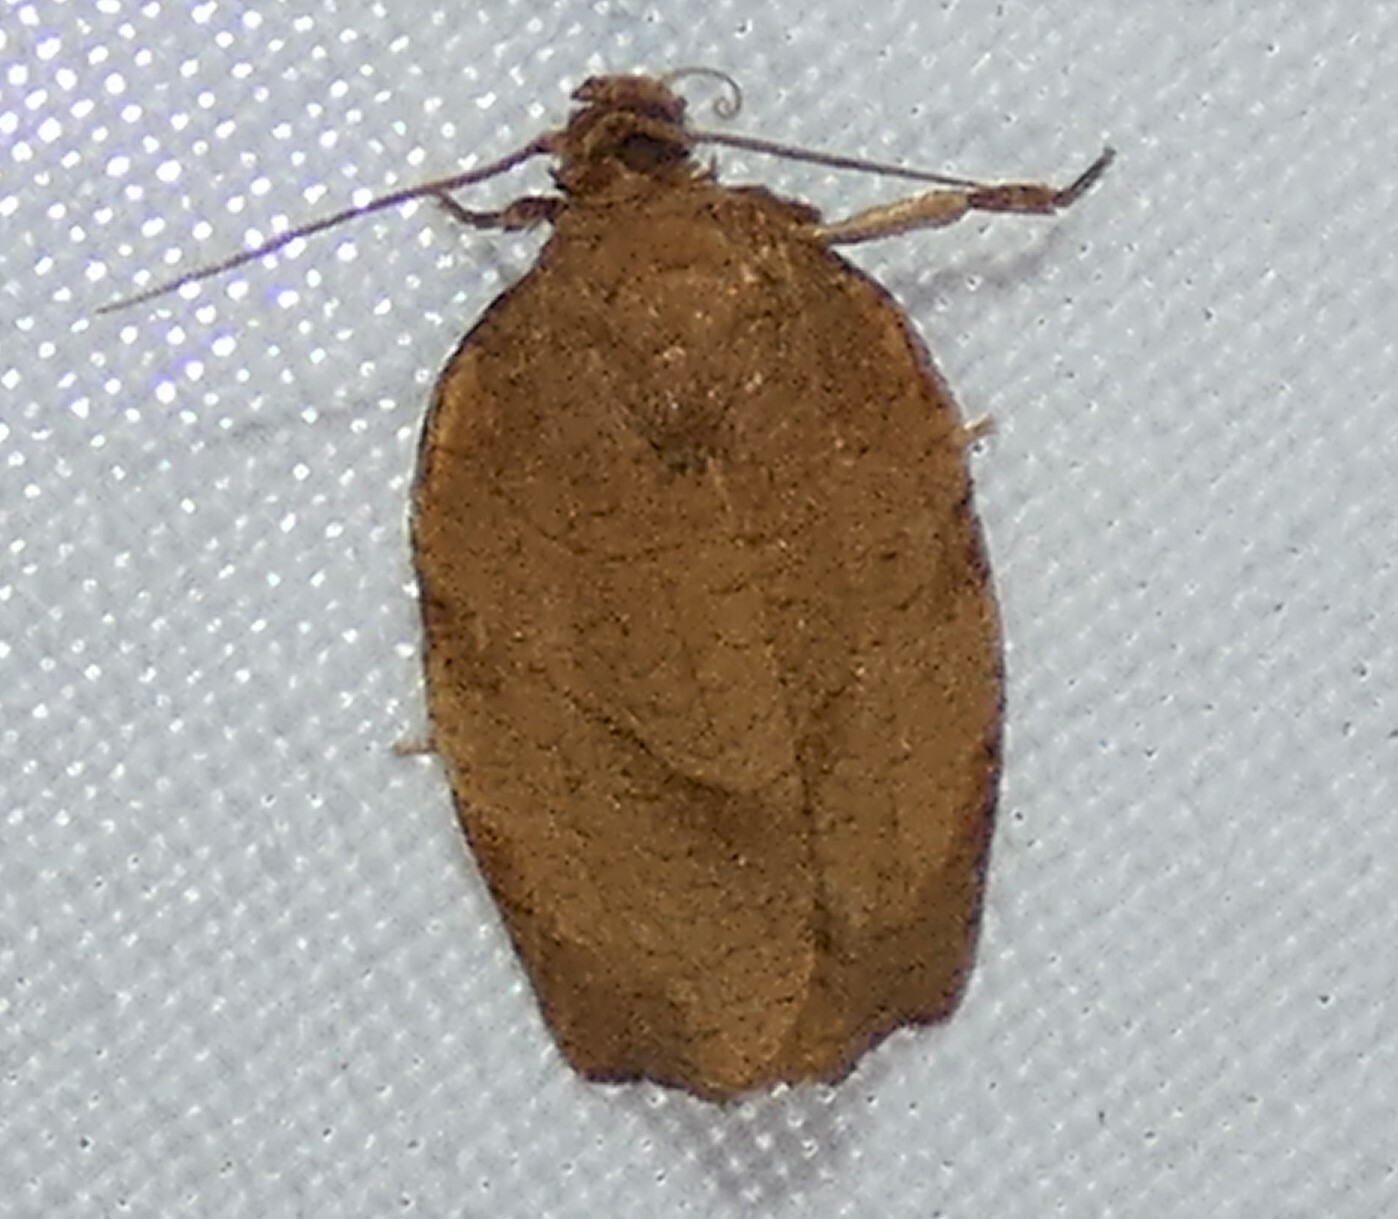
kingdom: Animalia
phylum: Arthropoda
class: Insecta
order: Lepidoptera
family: Tortricidae
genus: Choristoneura
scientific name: Choristoneura rosaceana
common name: Oblique-banded leafroller moth
